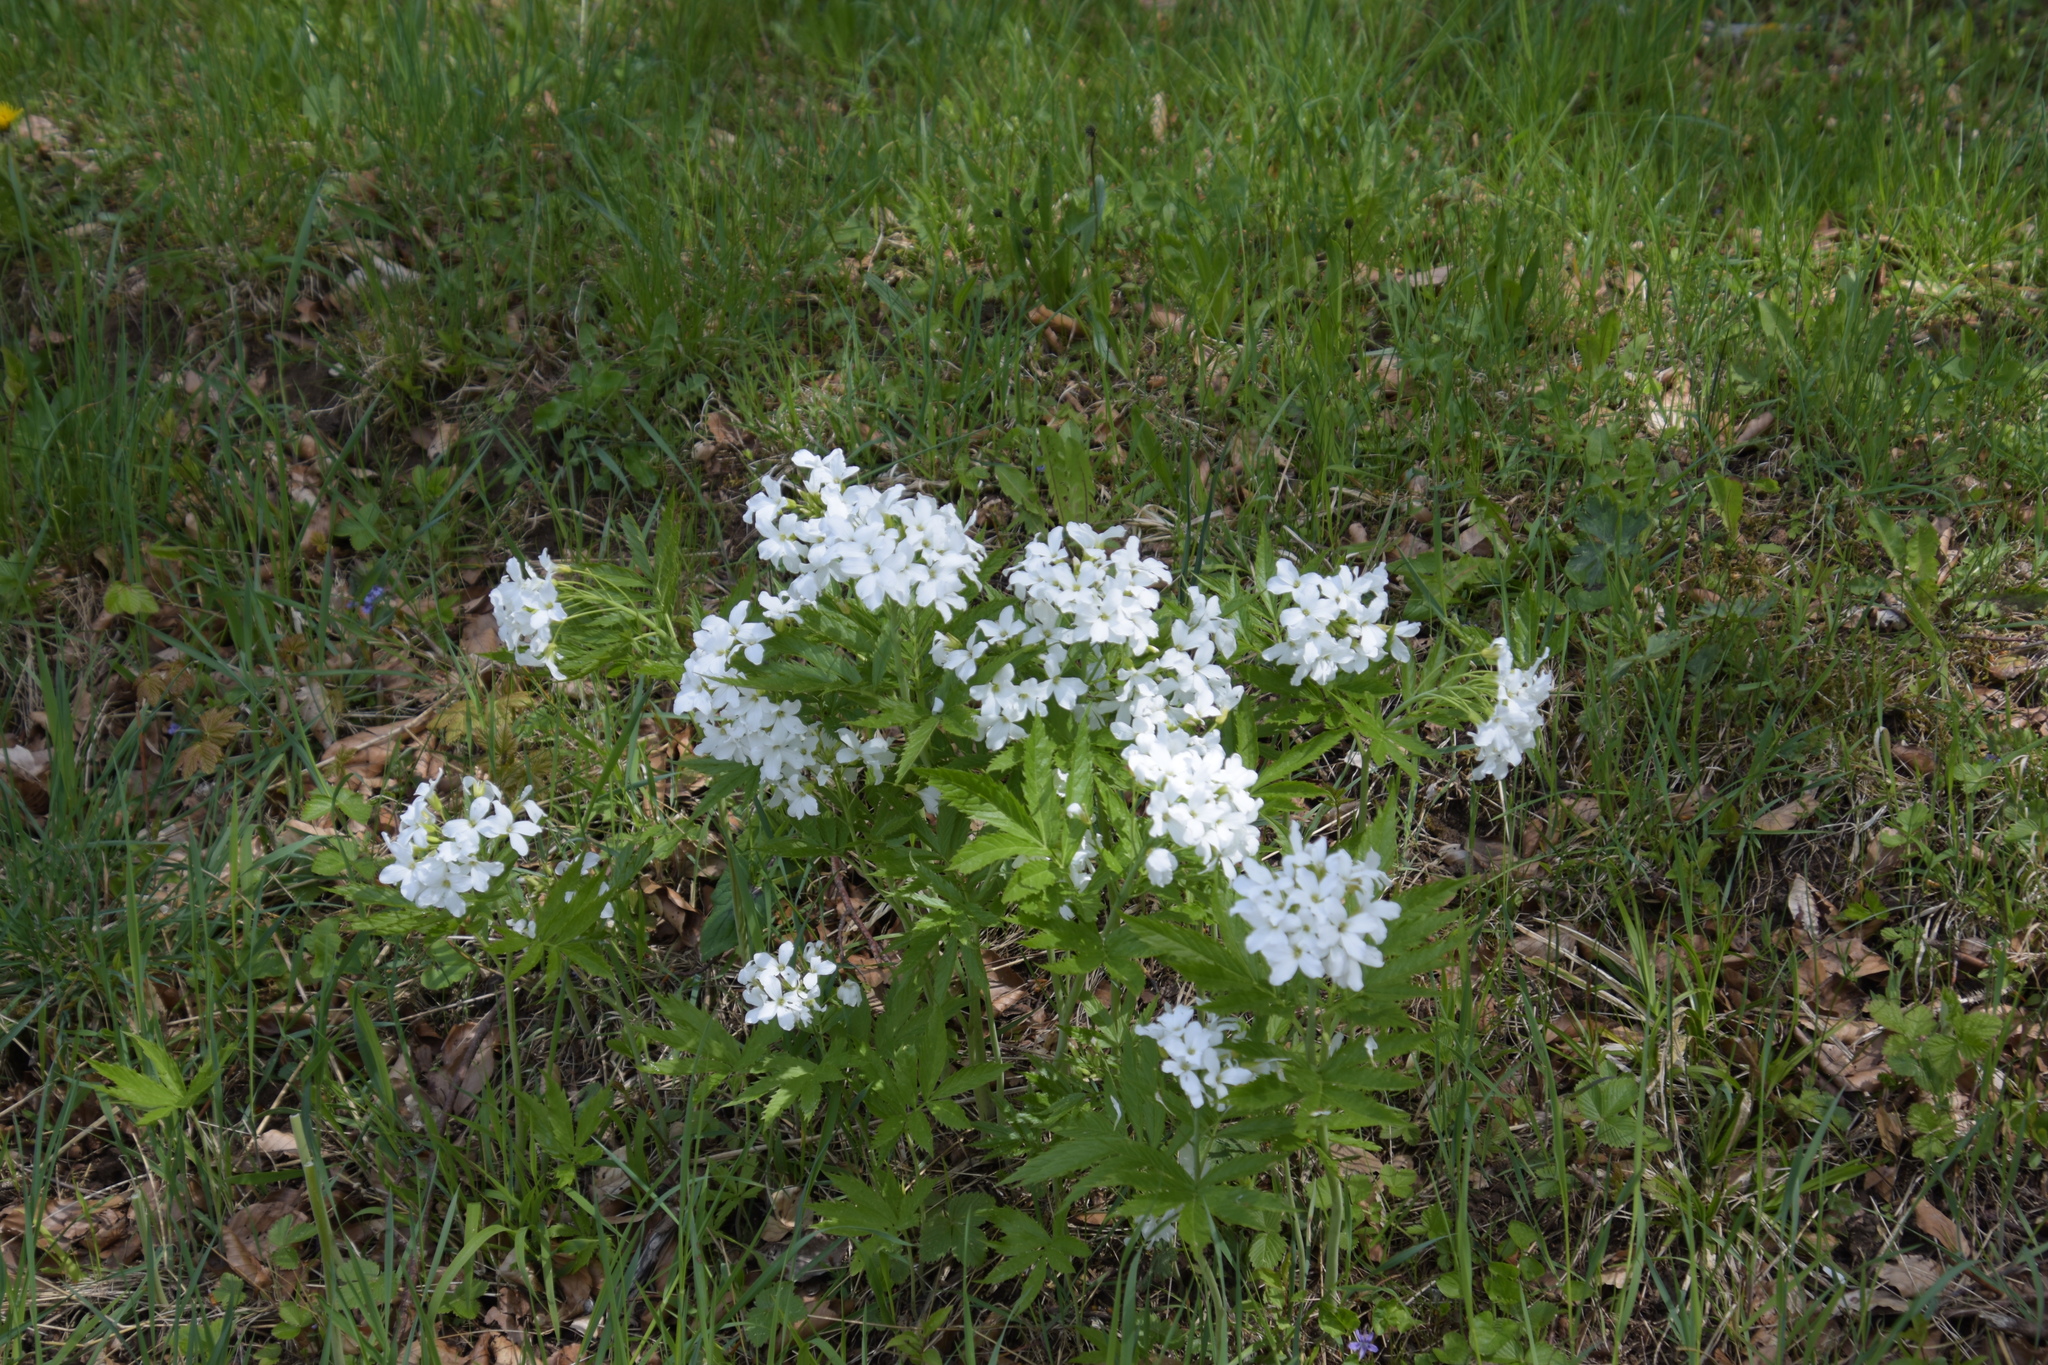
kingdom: Plantae
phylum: Tracheophyta
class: Magnoliopsida
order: Brassicales
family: Brassicaceae
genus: Cardamine
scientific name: Cardamine heptaphylla
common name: Pinnate coralroot
